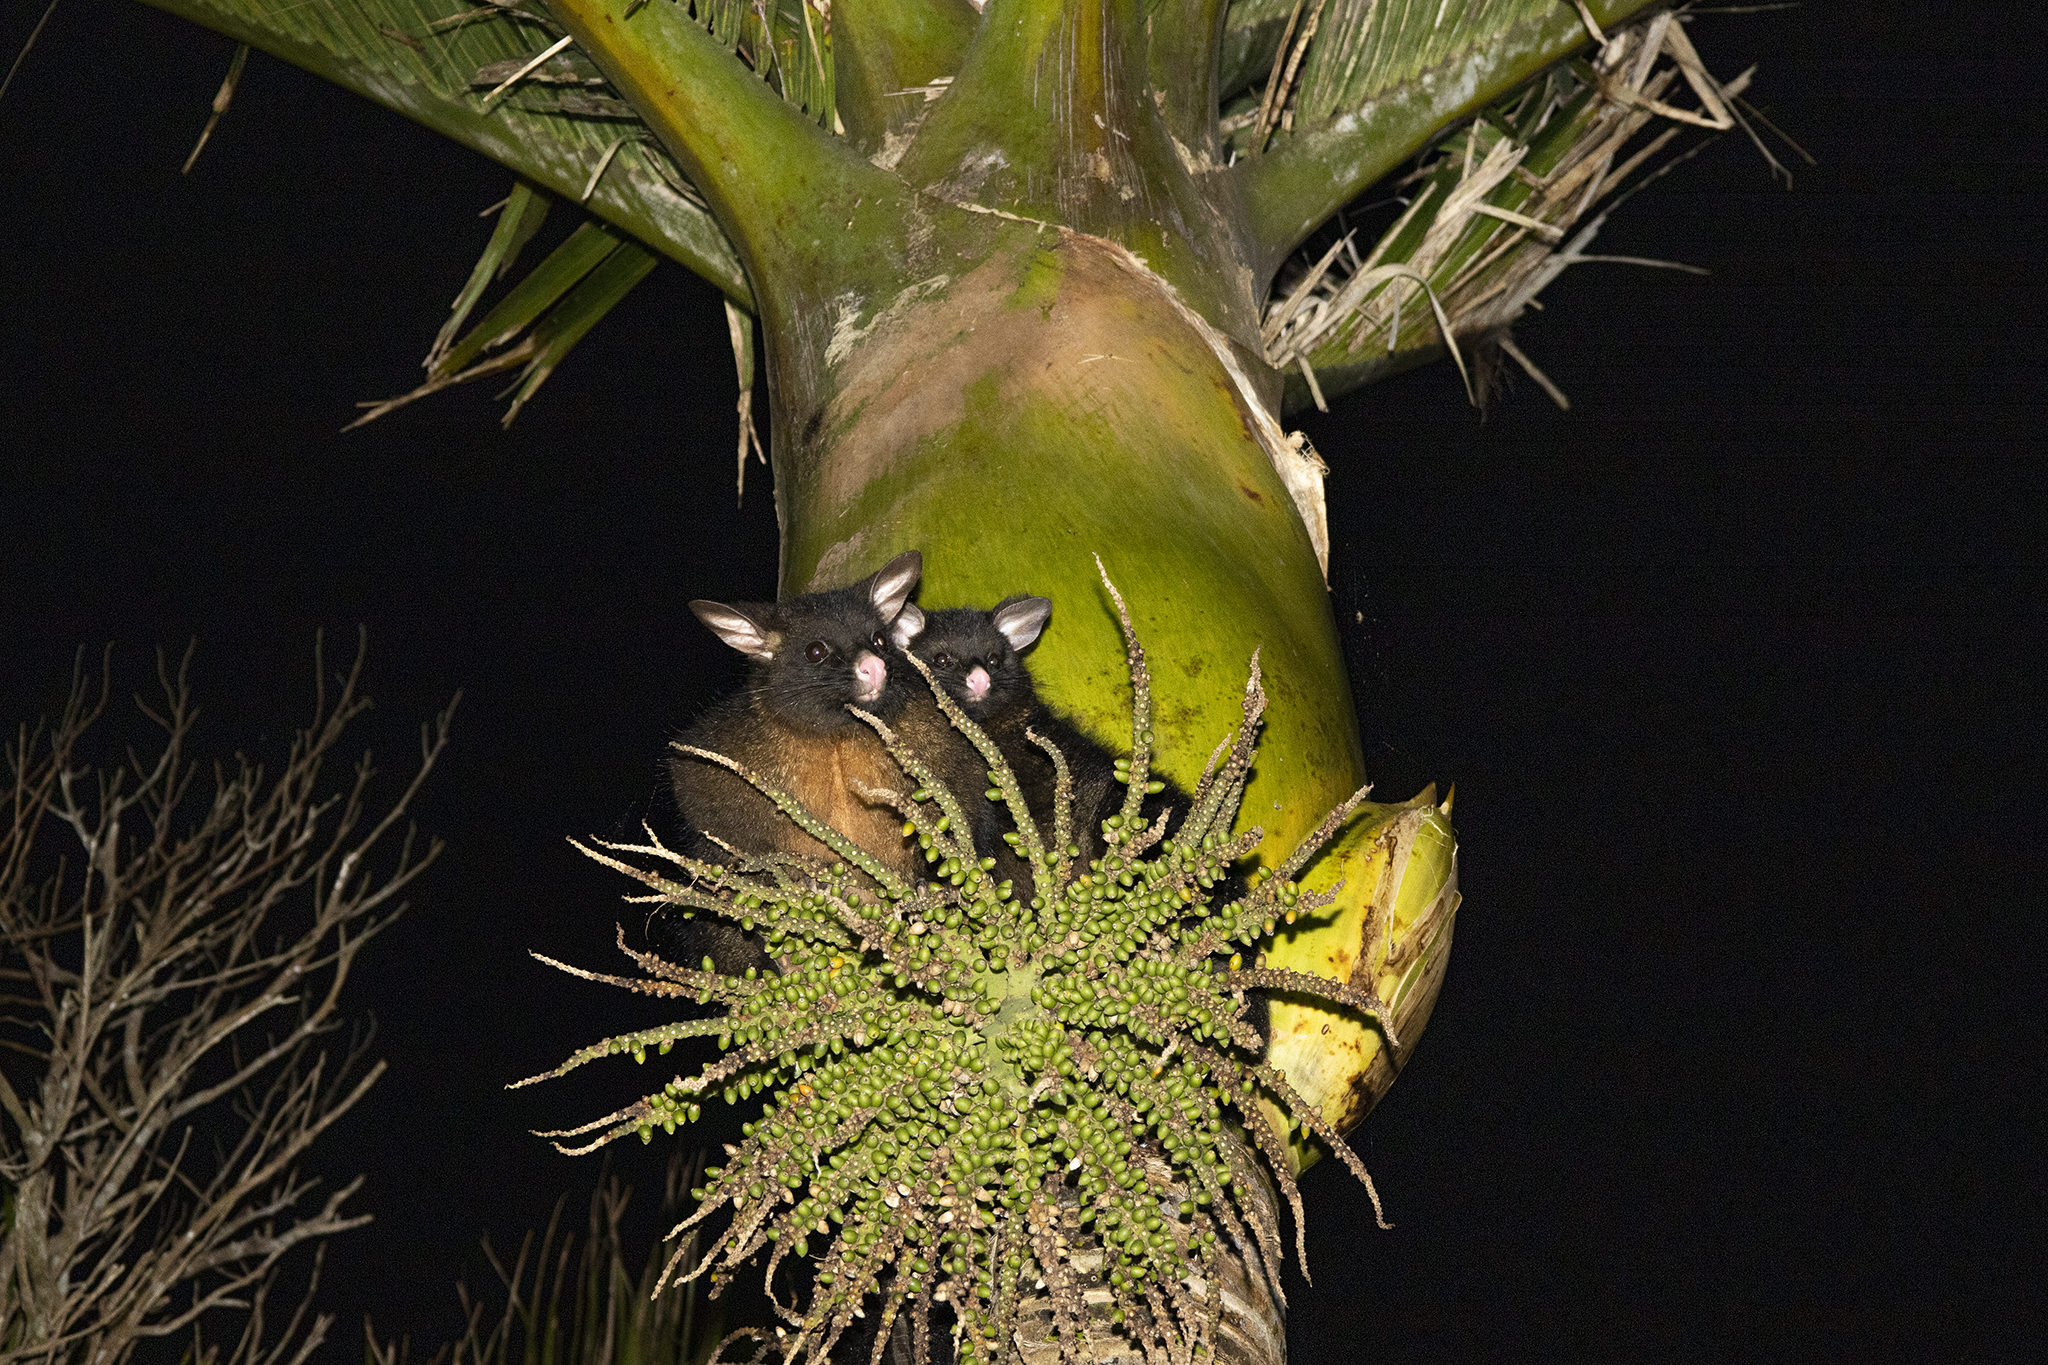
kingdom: Animalia
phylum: Chordata
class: Mammalia
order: Diprotodontia
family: Phalangeridae
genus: Trichosurus
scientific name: Trichosurus vulpecula
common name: Common brushtail
